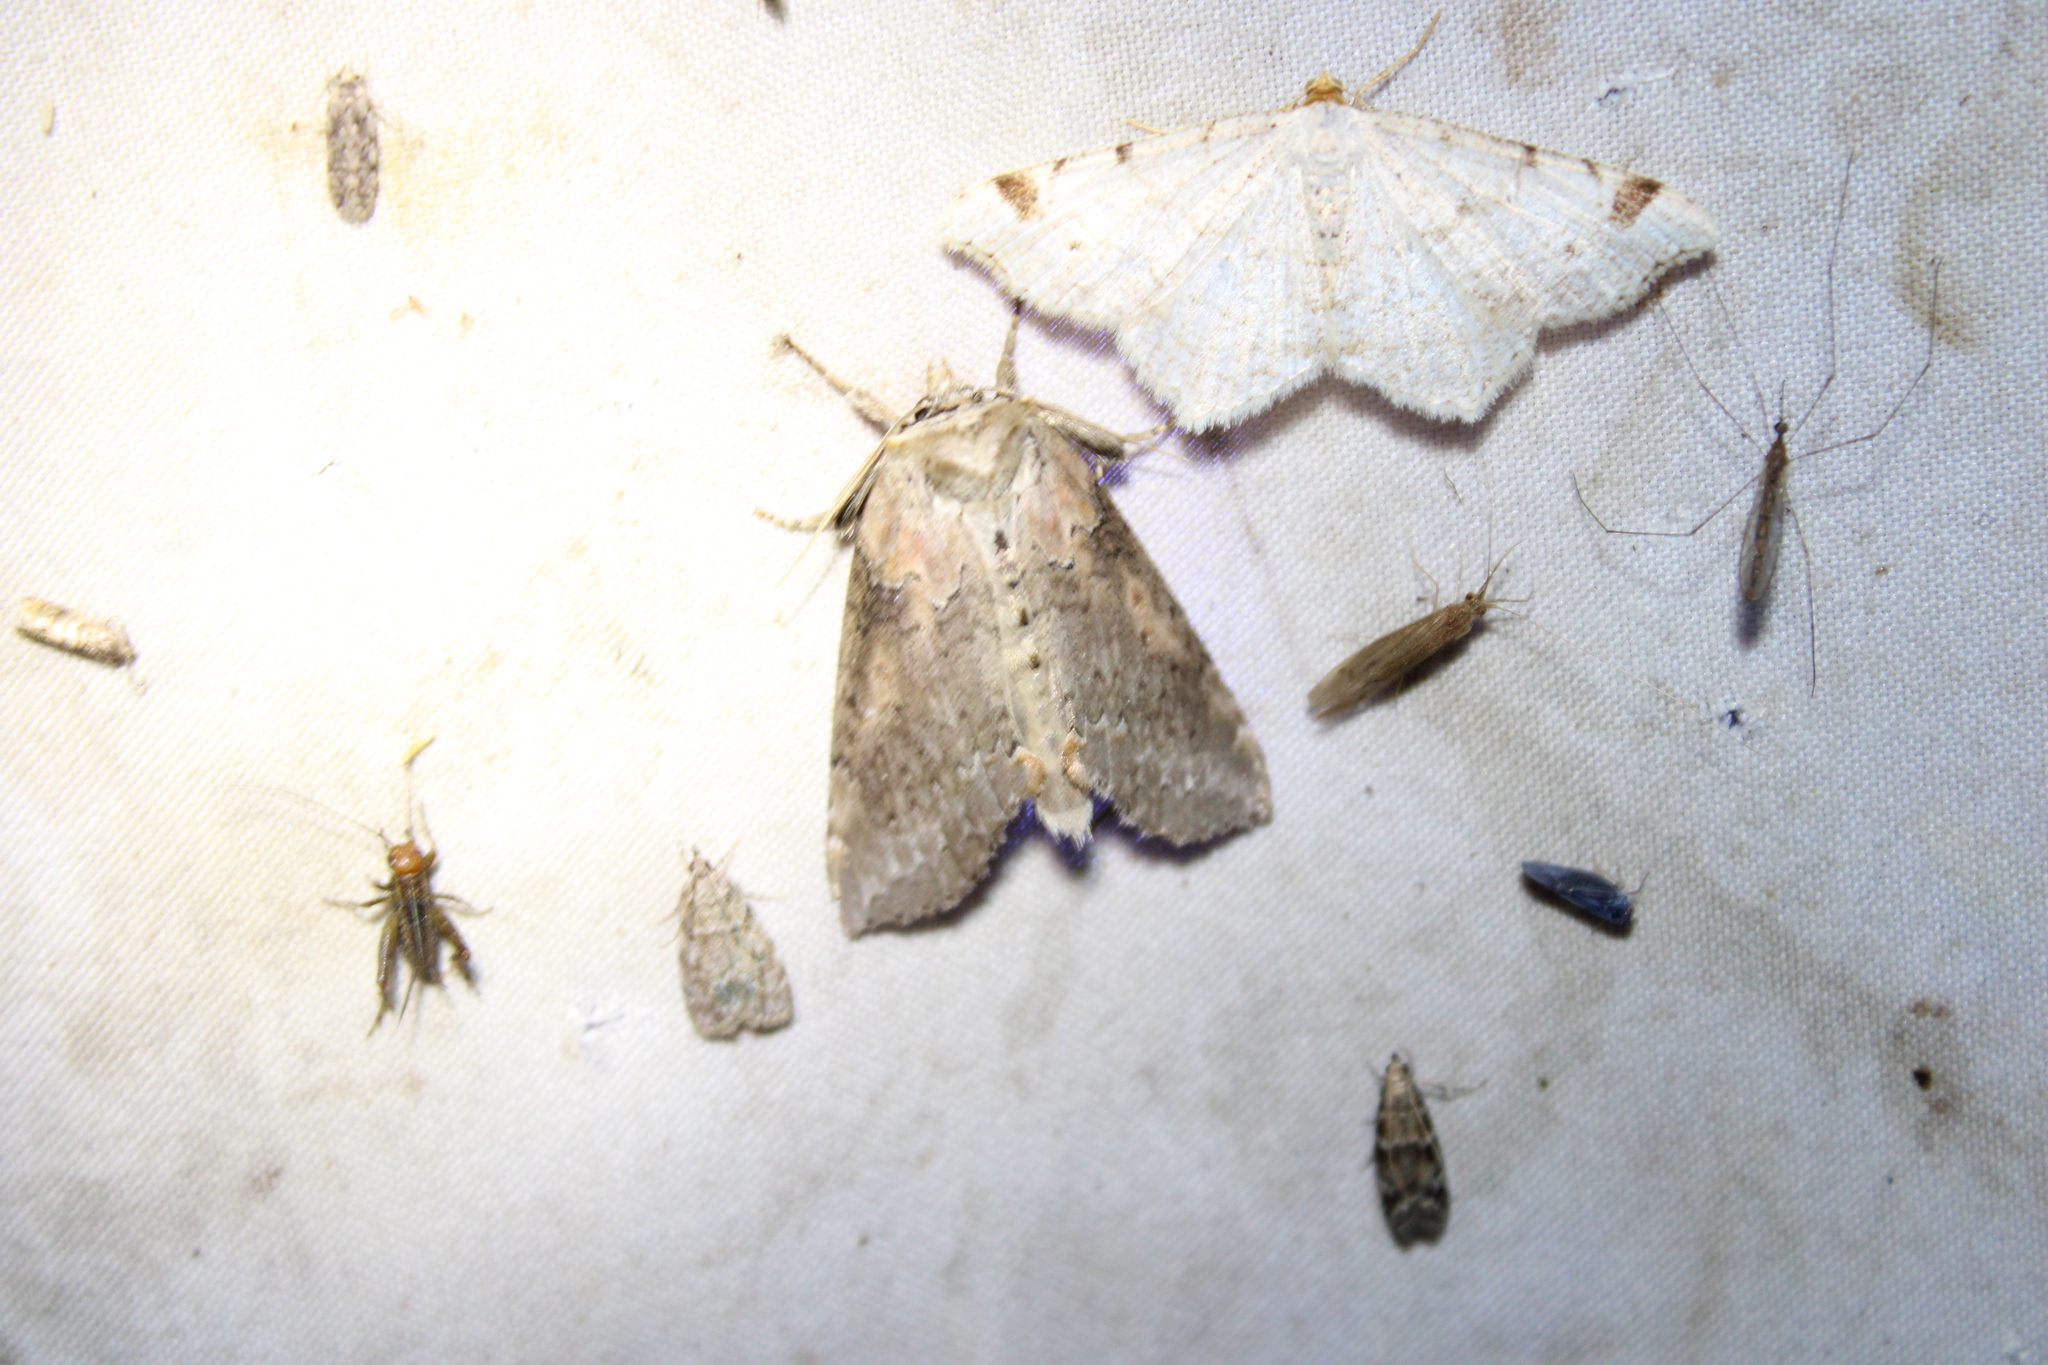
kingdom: Animalia
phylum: Arthropoda
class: Insecta
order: Lepidoptera
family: Drepanidae
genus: Pseudothyatira
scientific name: Pseudothyatira cymatophoroides
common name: Tufted thyatirid moth
